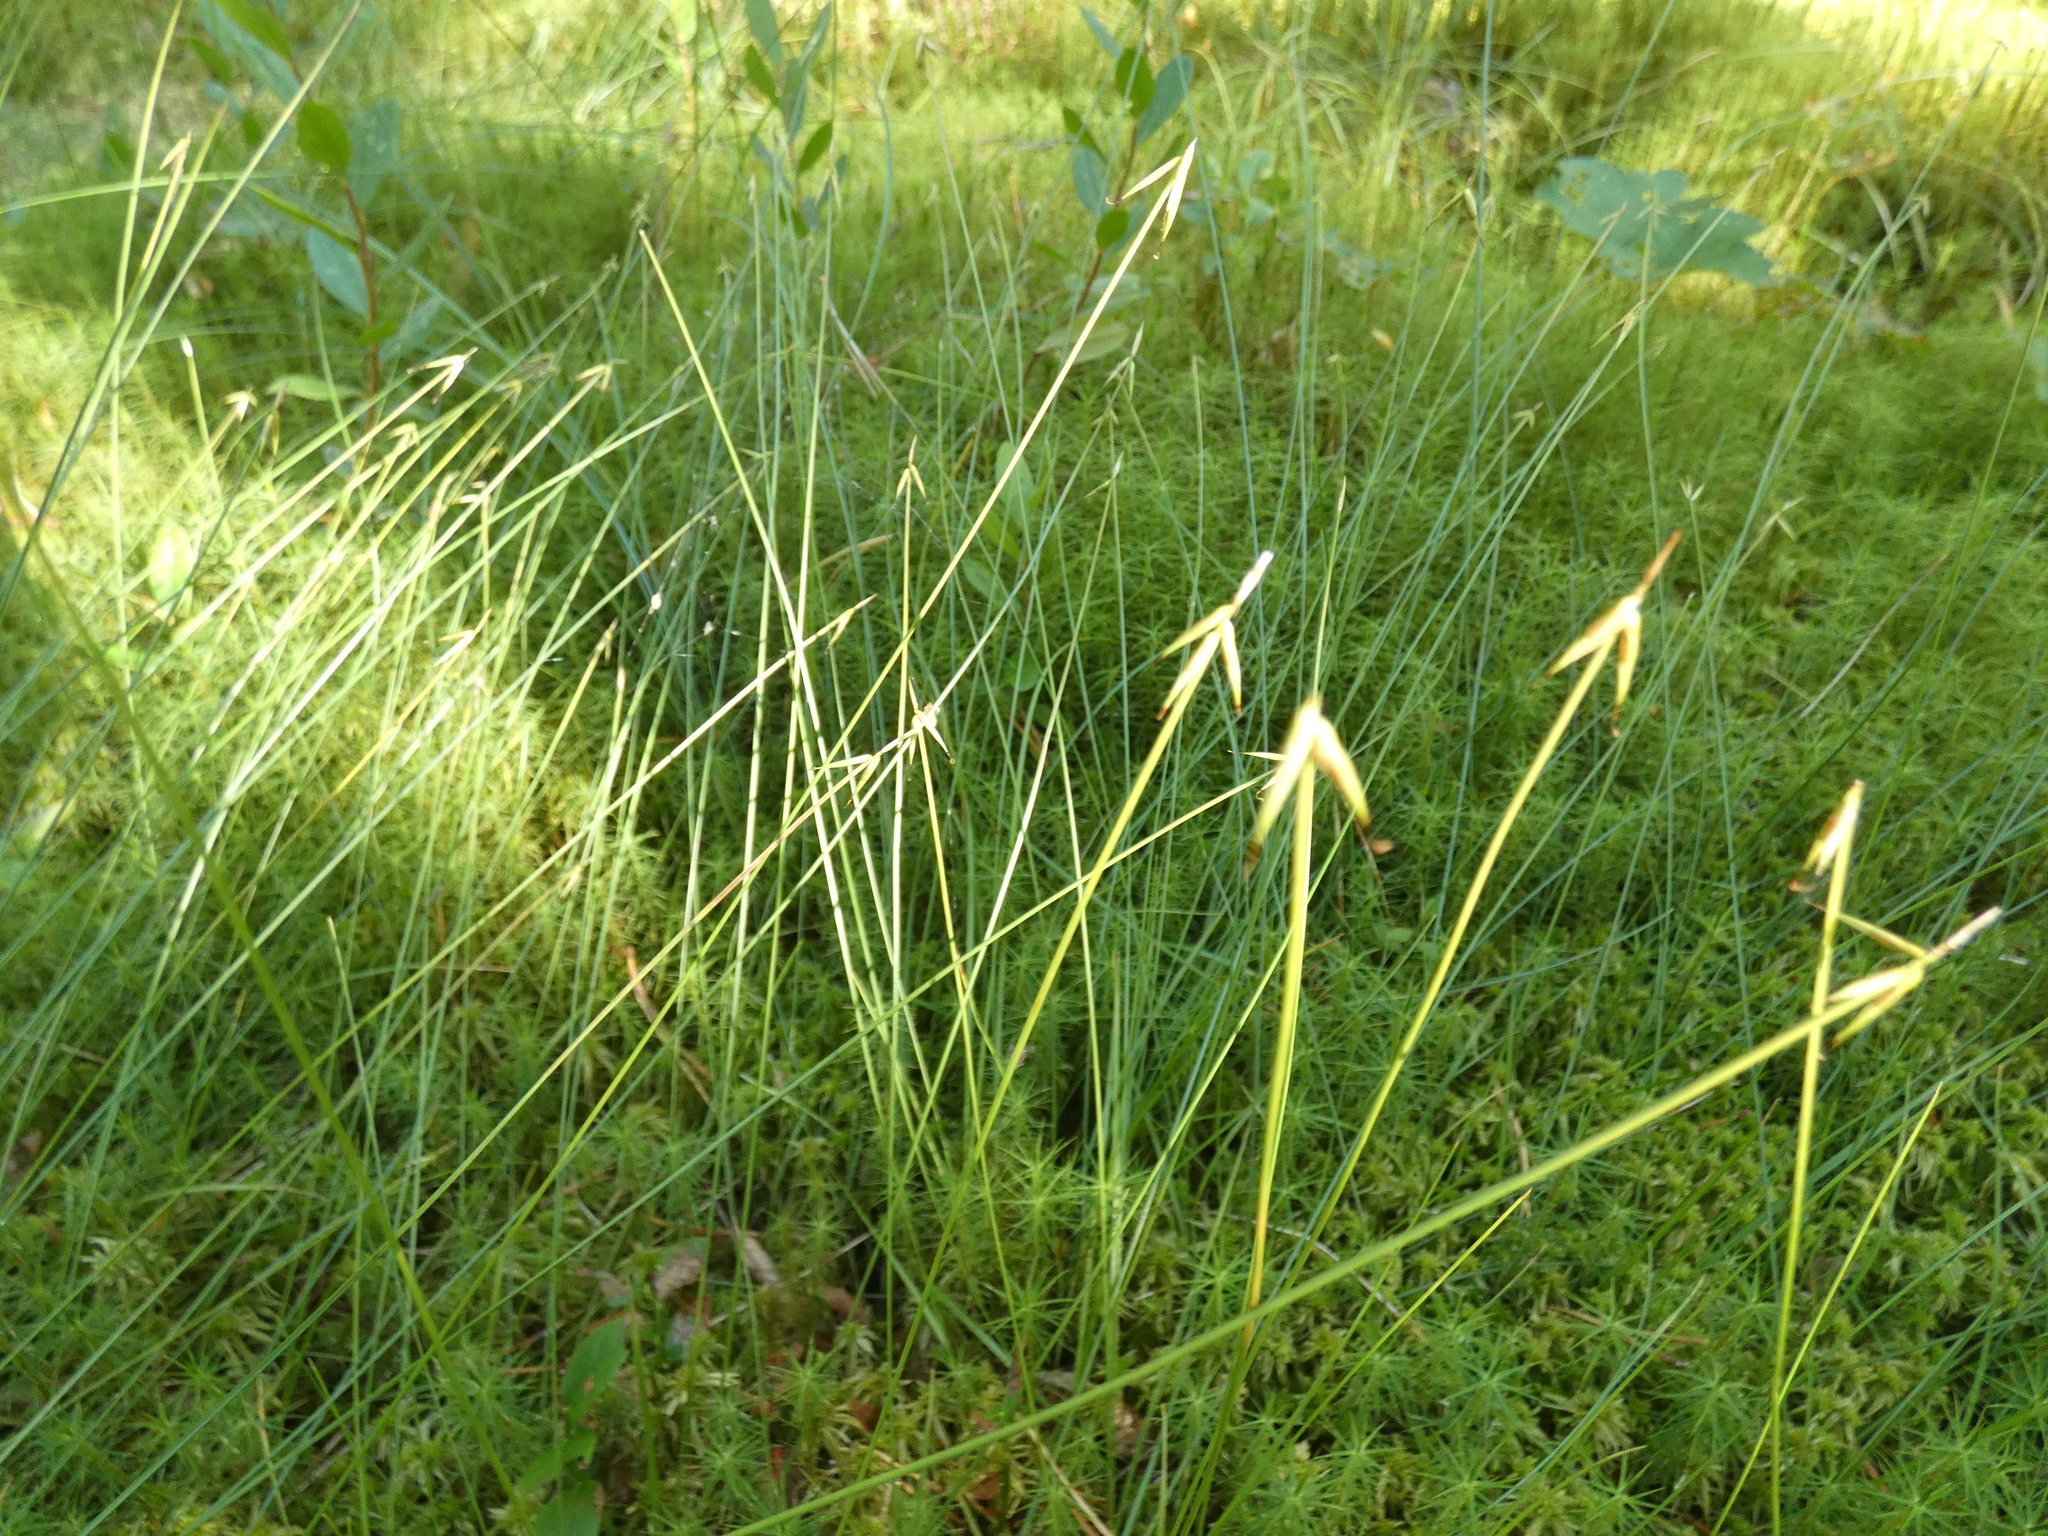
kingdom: Plantae
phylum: Tracheophyta
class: Liliopsida
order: Poales
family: Cyperaceae
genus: Carex
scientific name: Carex pauciflora
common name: Few-flowered sedge
